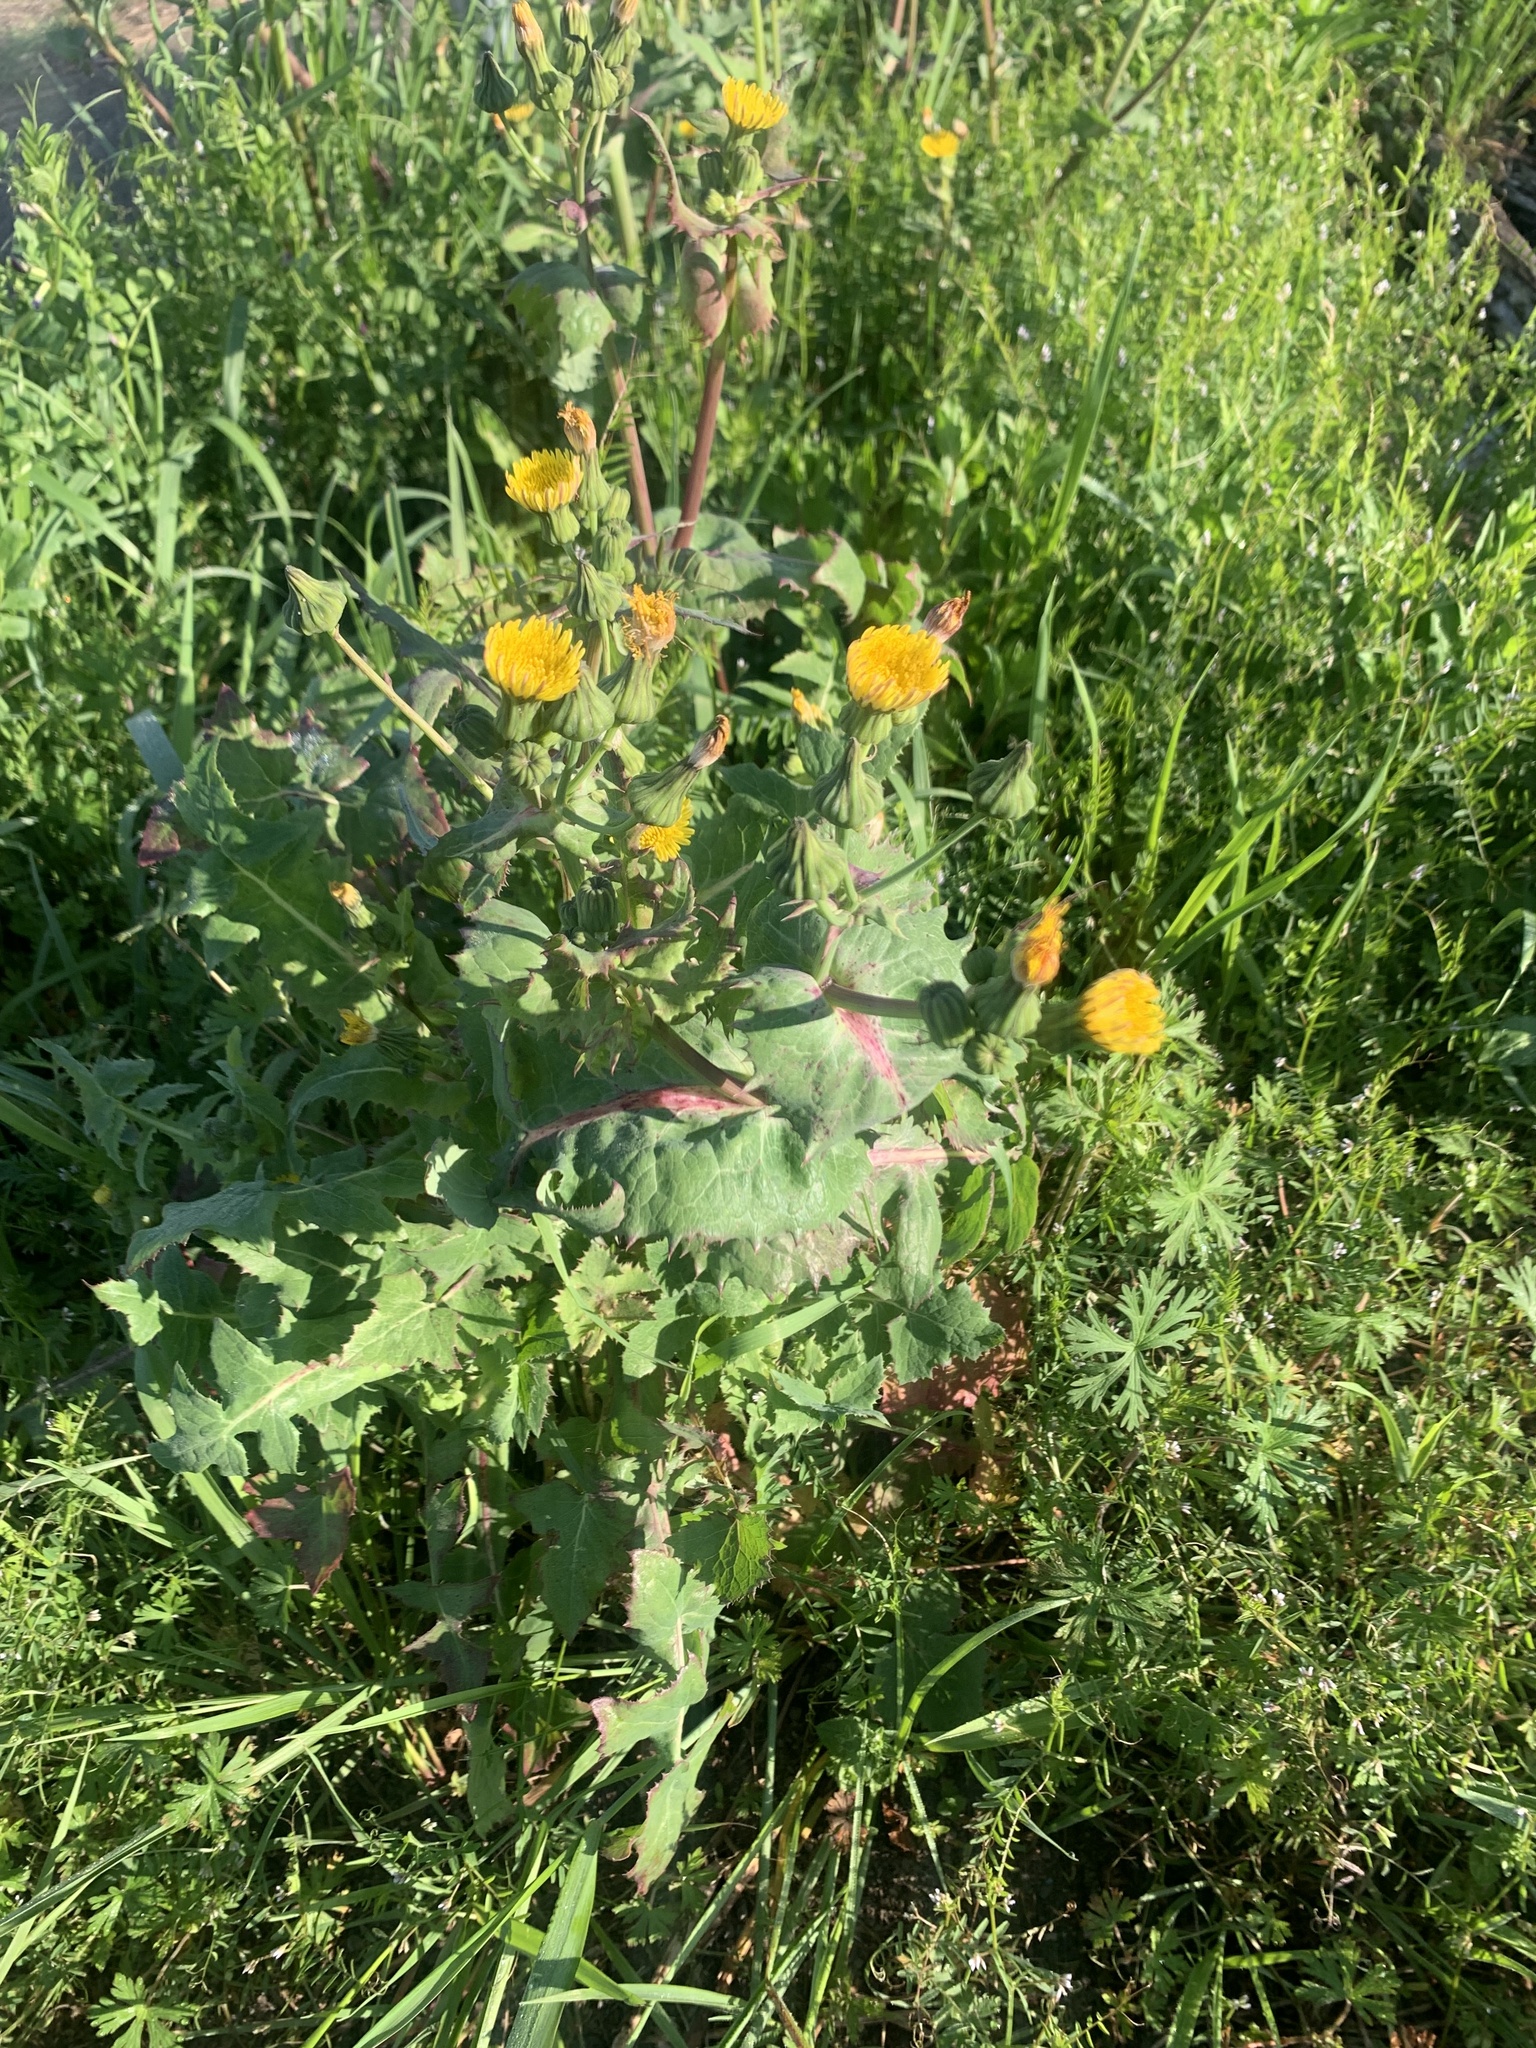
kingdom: Plantae
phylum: Tracheophyta
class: Magnoliopsida
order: Asterales
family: Asteraceae
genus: Sonchus
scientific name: Sonchus oleraceus
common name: Common sowthistle
